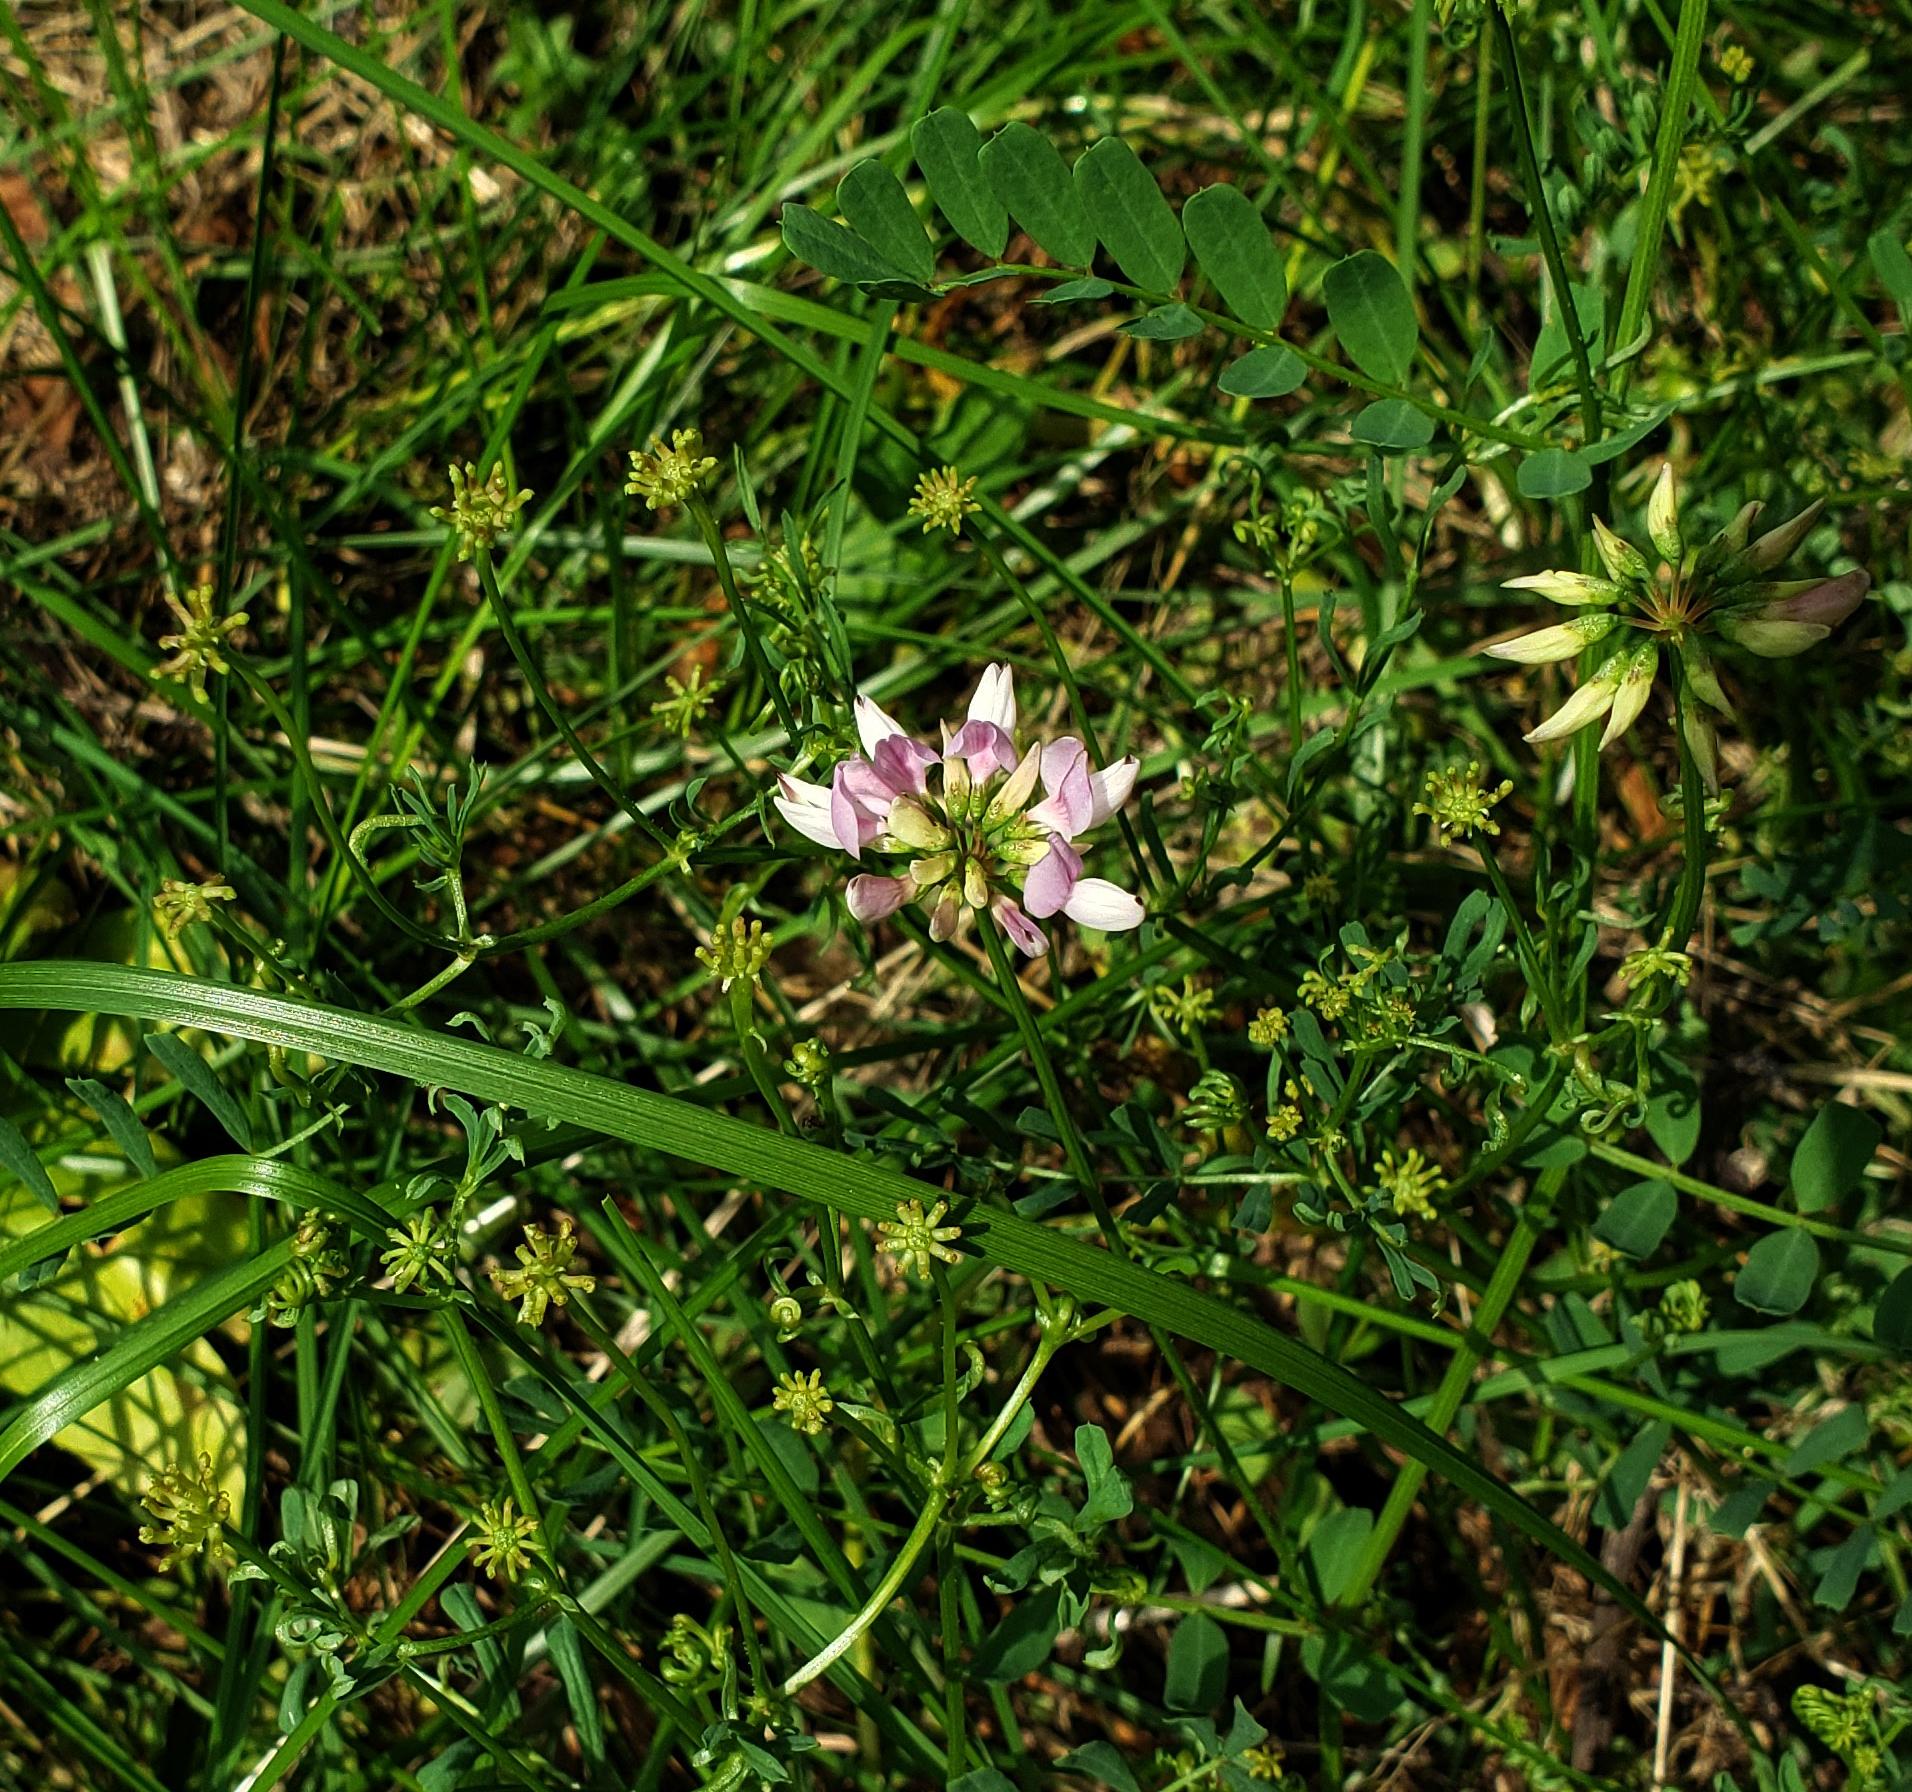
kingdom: Plantae
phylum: Tracheophyta
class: Magnoliopsida
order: Fabales
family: Fabaceae
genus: Coronilla
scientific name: Coronilla varia
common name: Crownvetch
